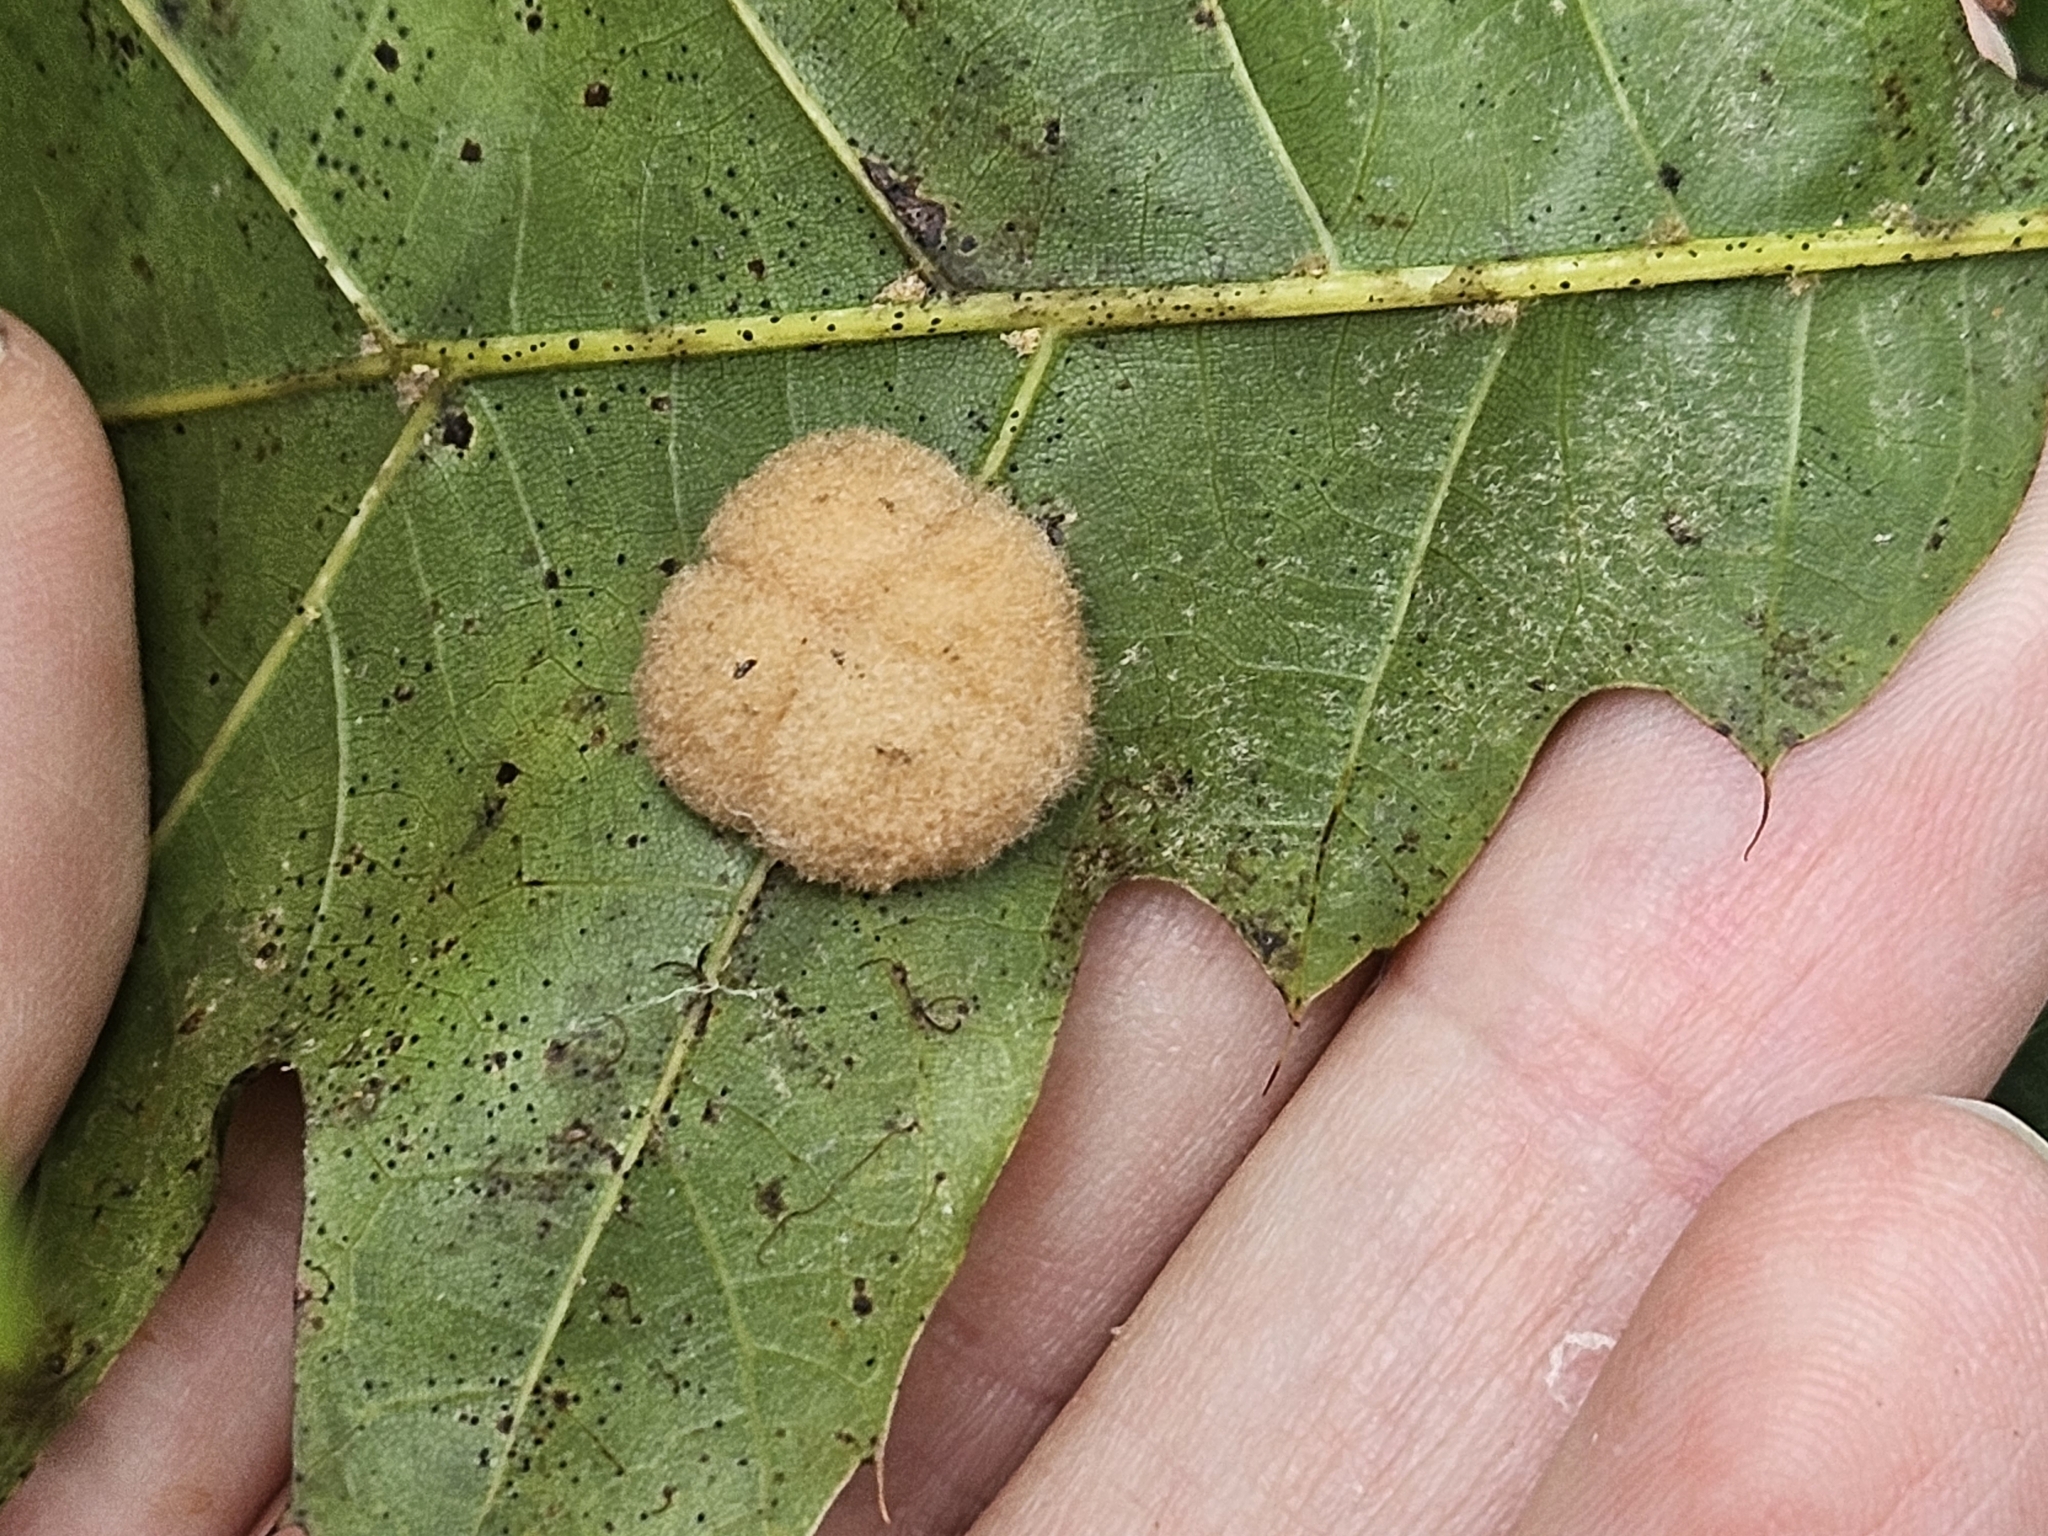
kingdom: Animalia
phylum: Arthropoda
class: Insecta
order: Hymenoptera
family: Cynipidae
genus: Callirhytis
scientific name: Callirhytis
